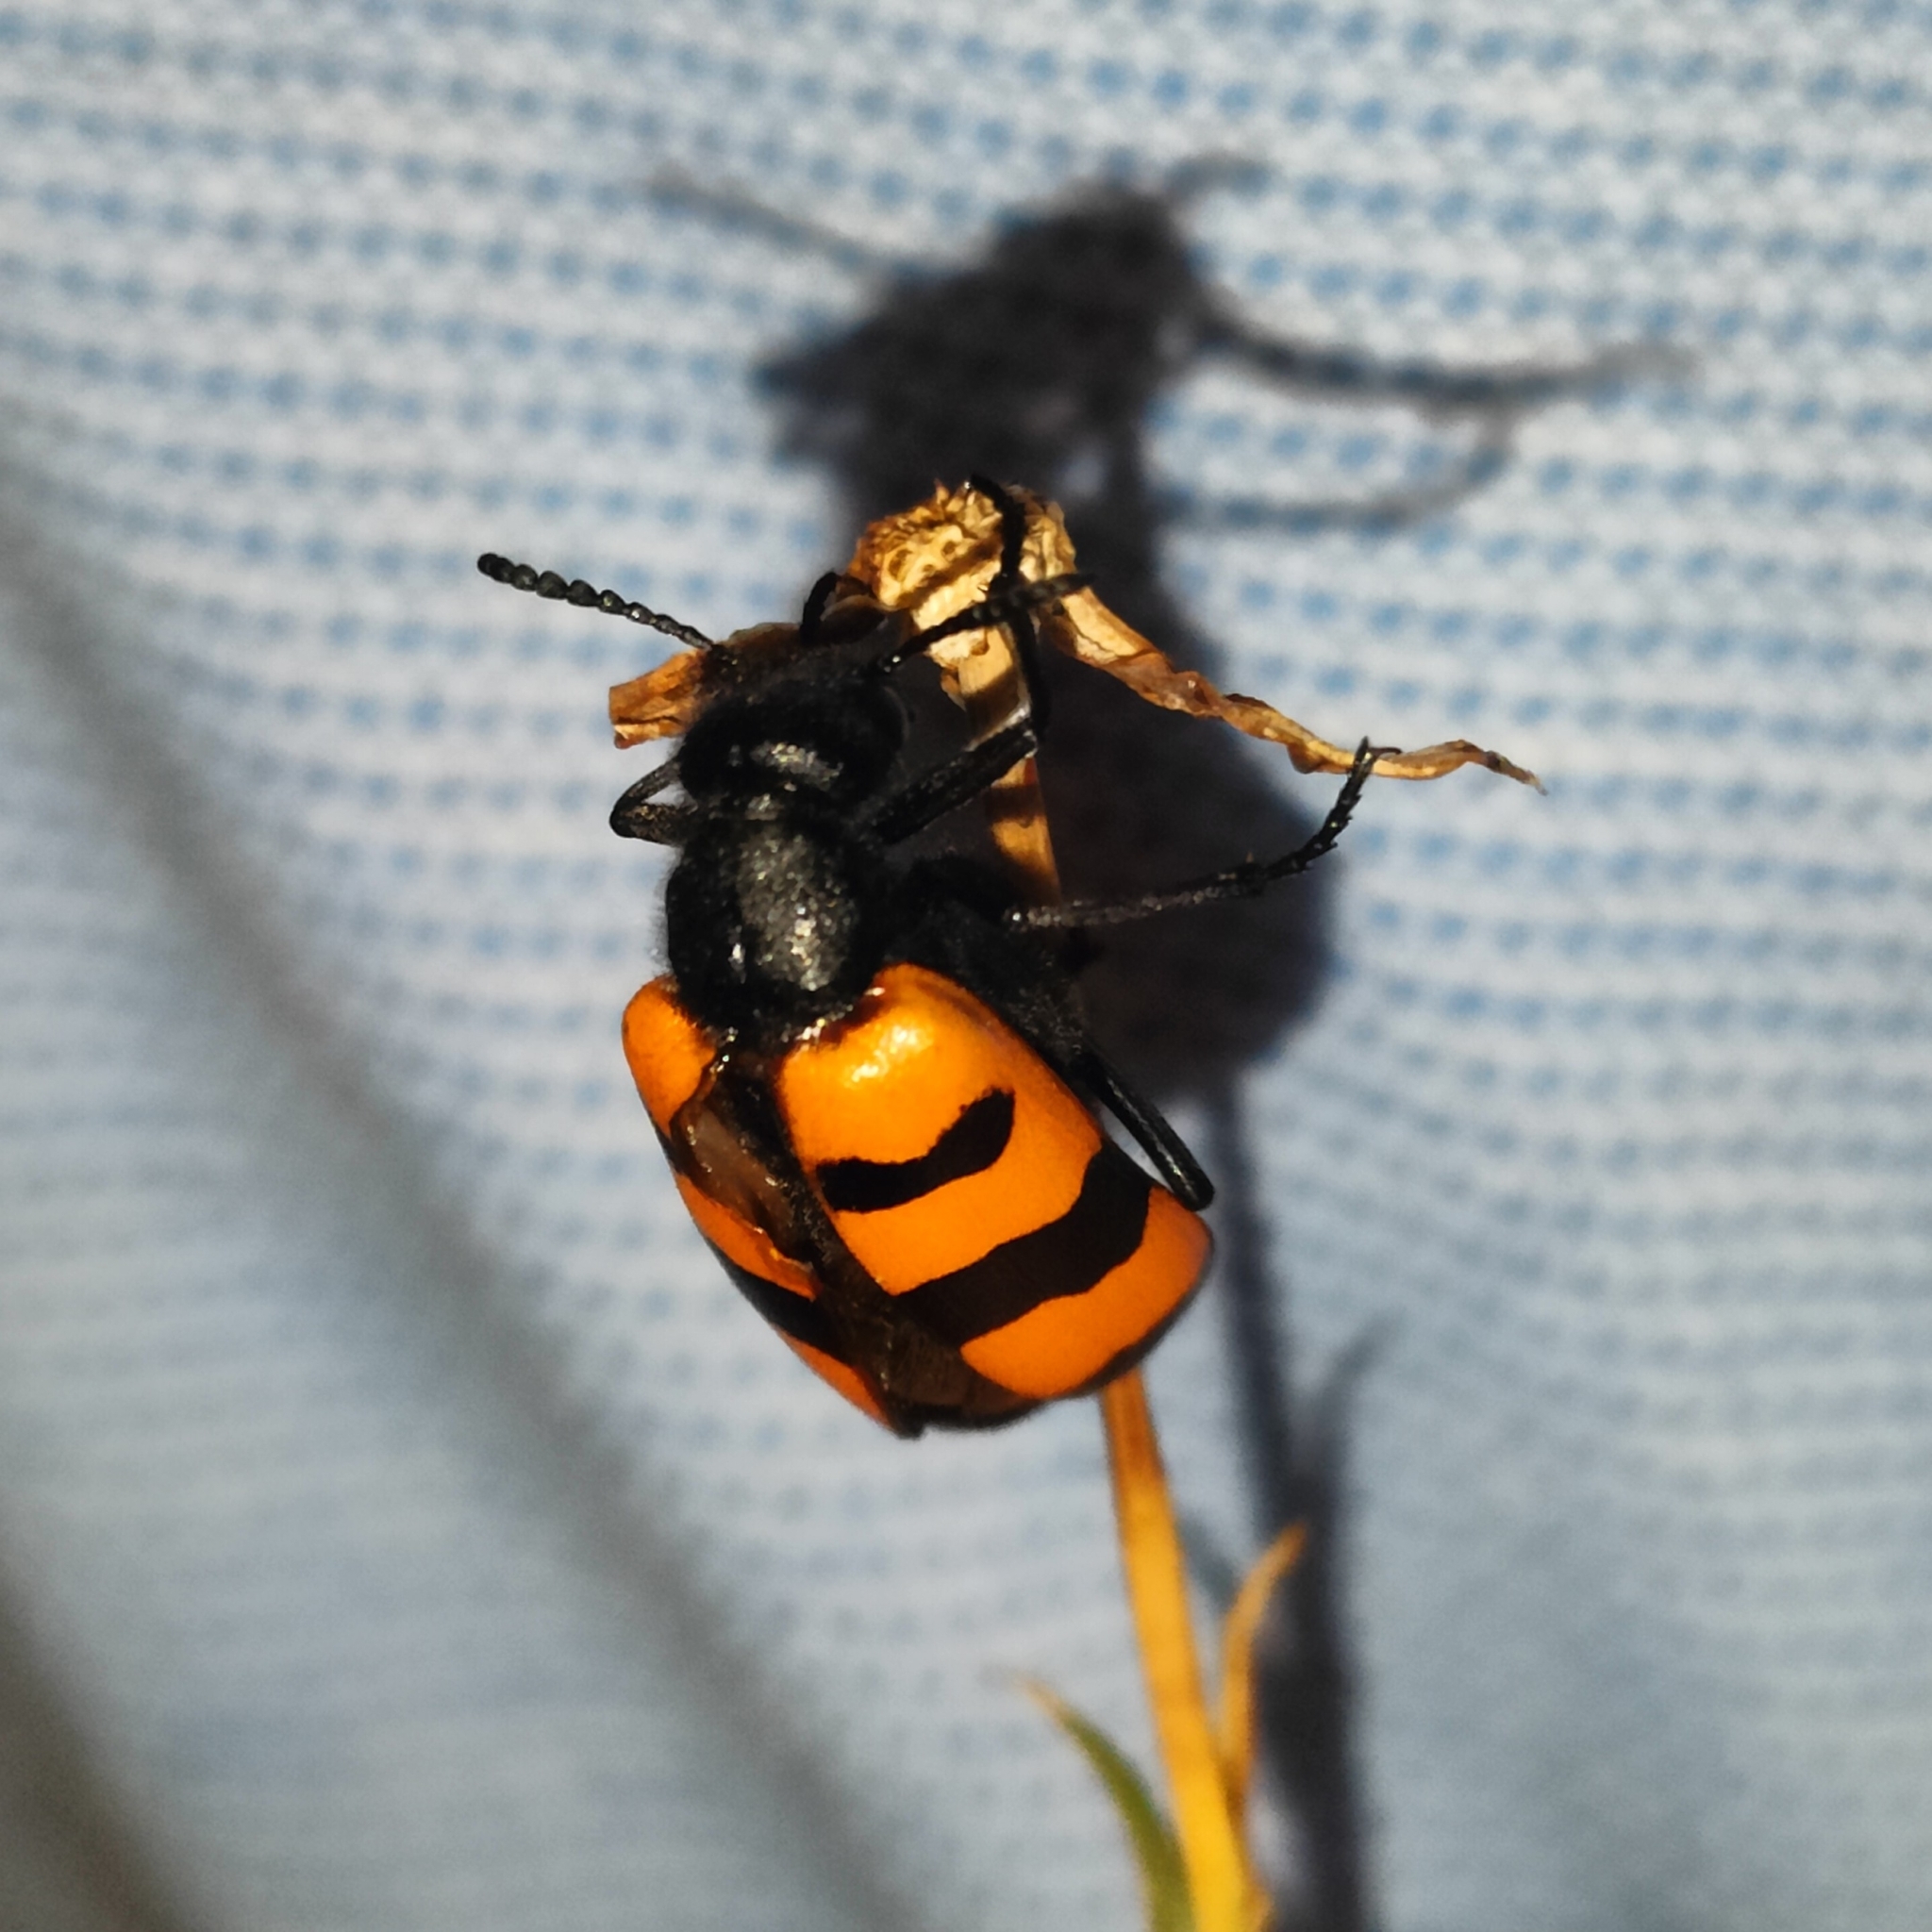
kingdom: Animalia
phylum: Arthropoda
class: Insecta
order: Coleoptera
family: Meloidae
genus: Mylabris
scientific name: Mylabris variabilis
